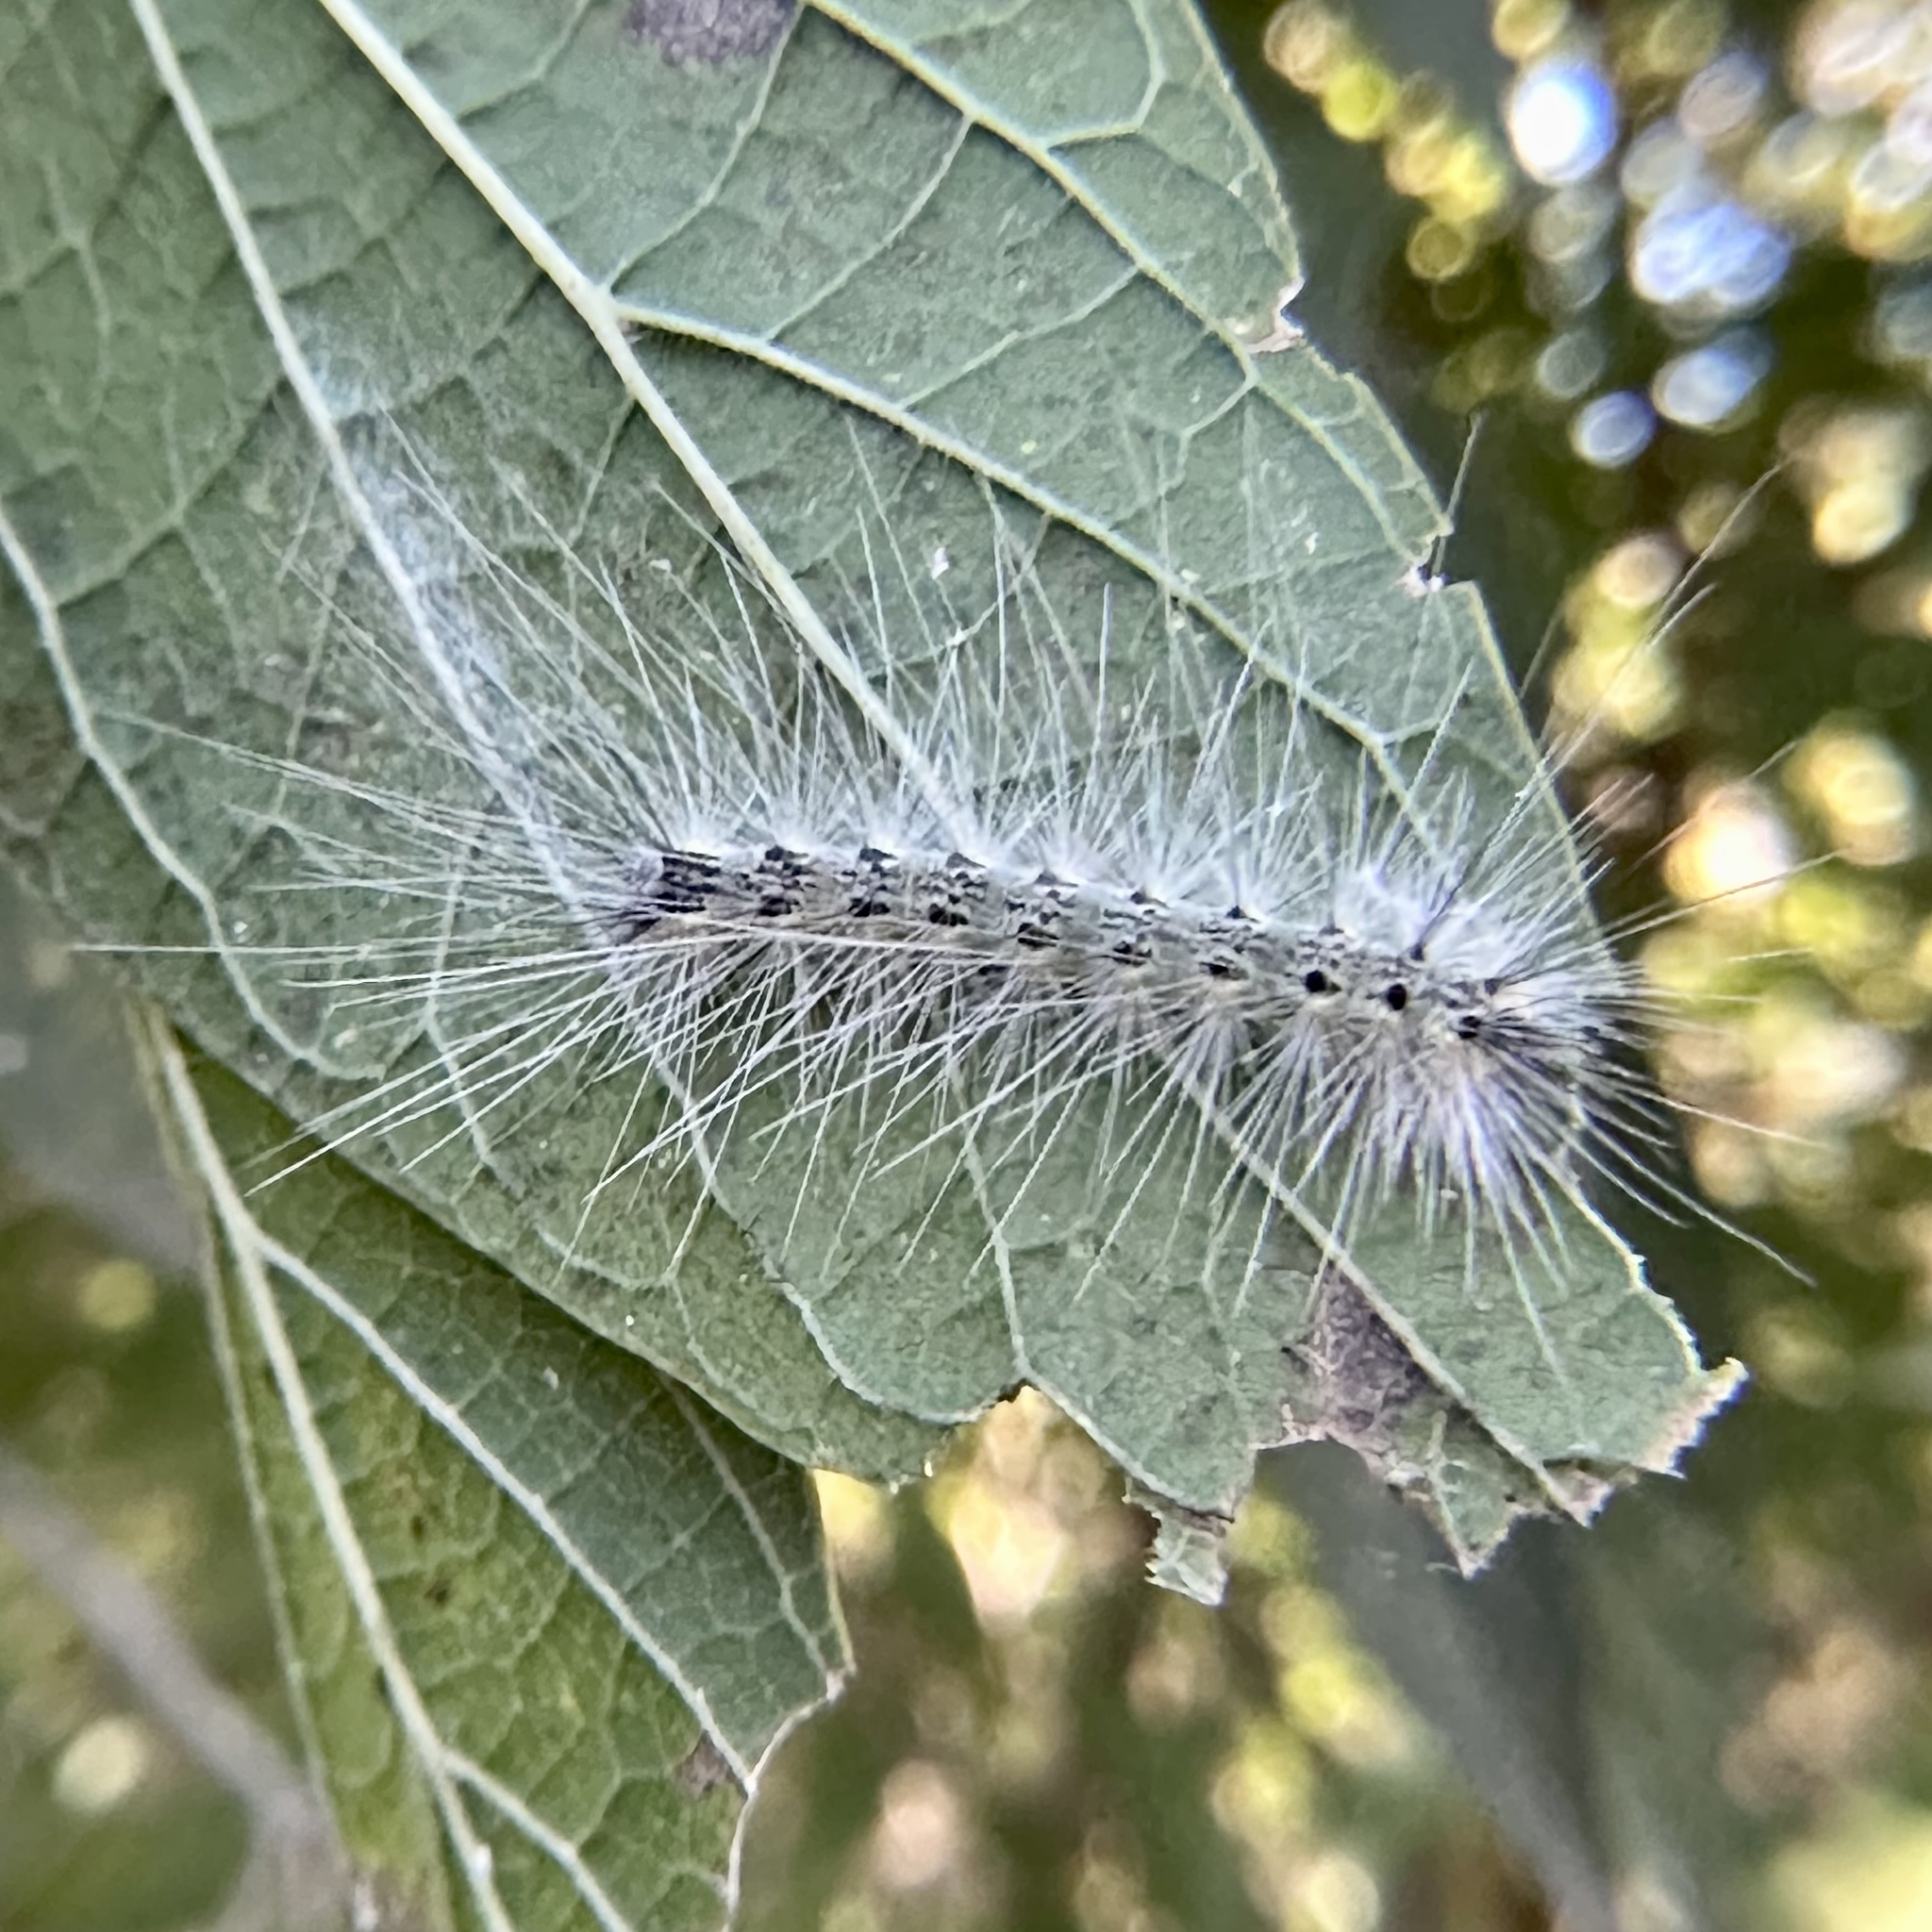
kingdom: Animalia
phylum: Arthropoda
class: Insecta
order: Lepidoptera
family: Erebidae
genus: Hyphantria
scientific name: Hyphantria cunea
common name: American white moth
